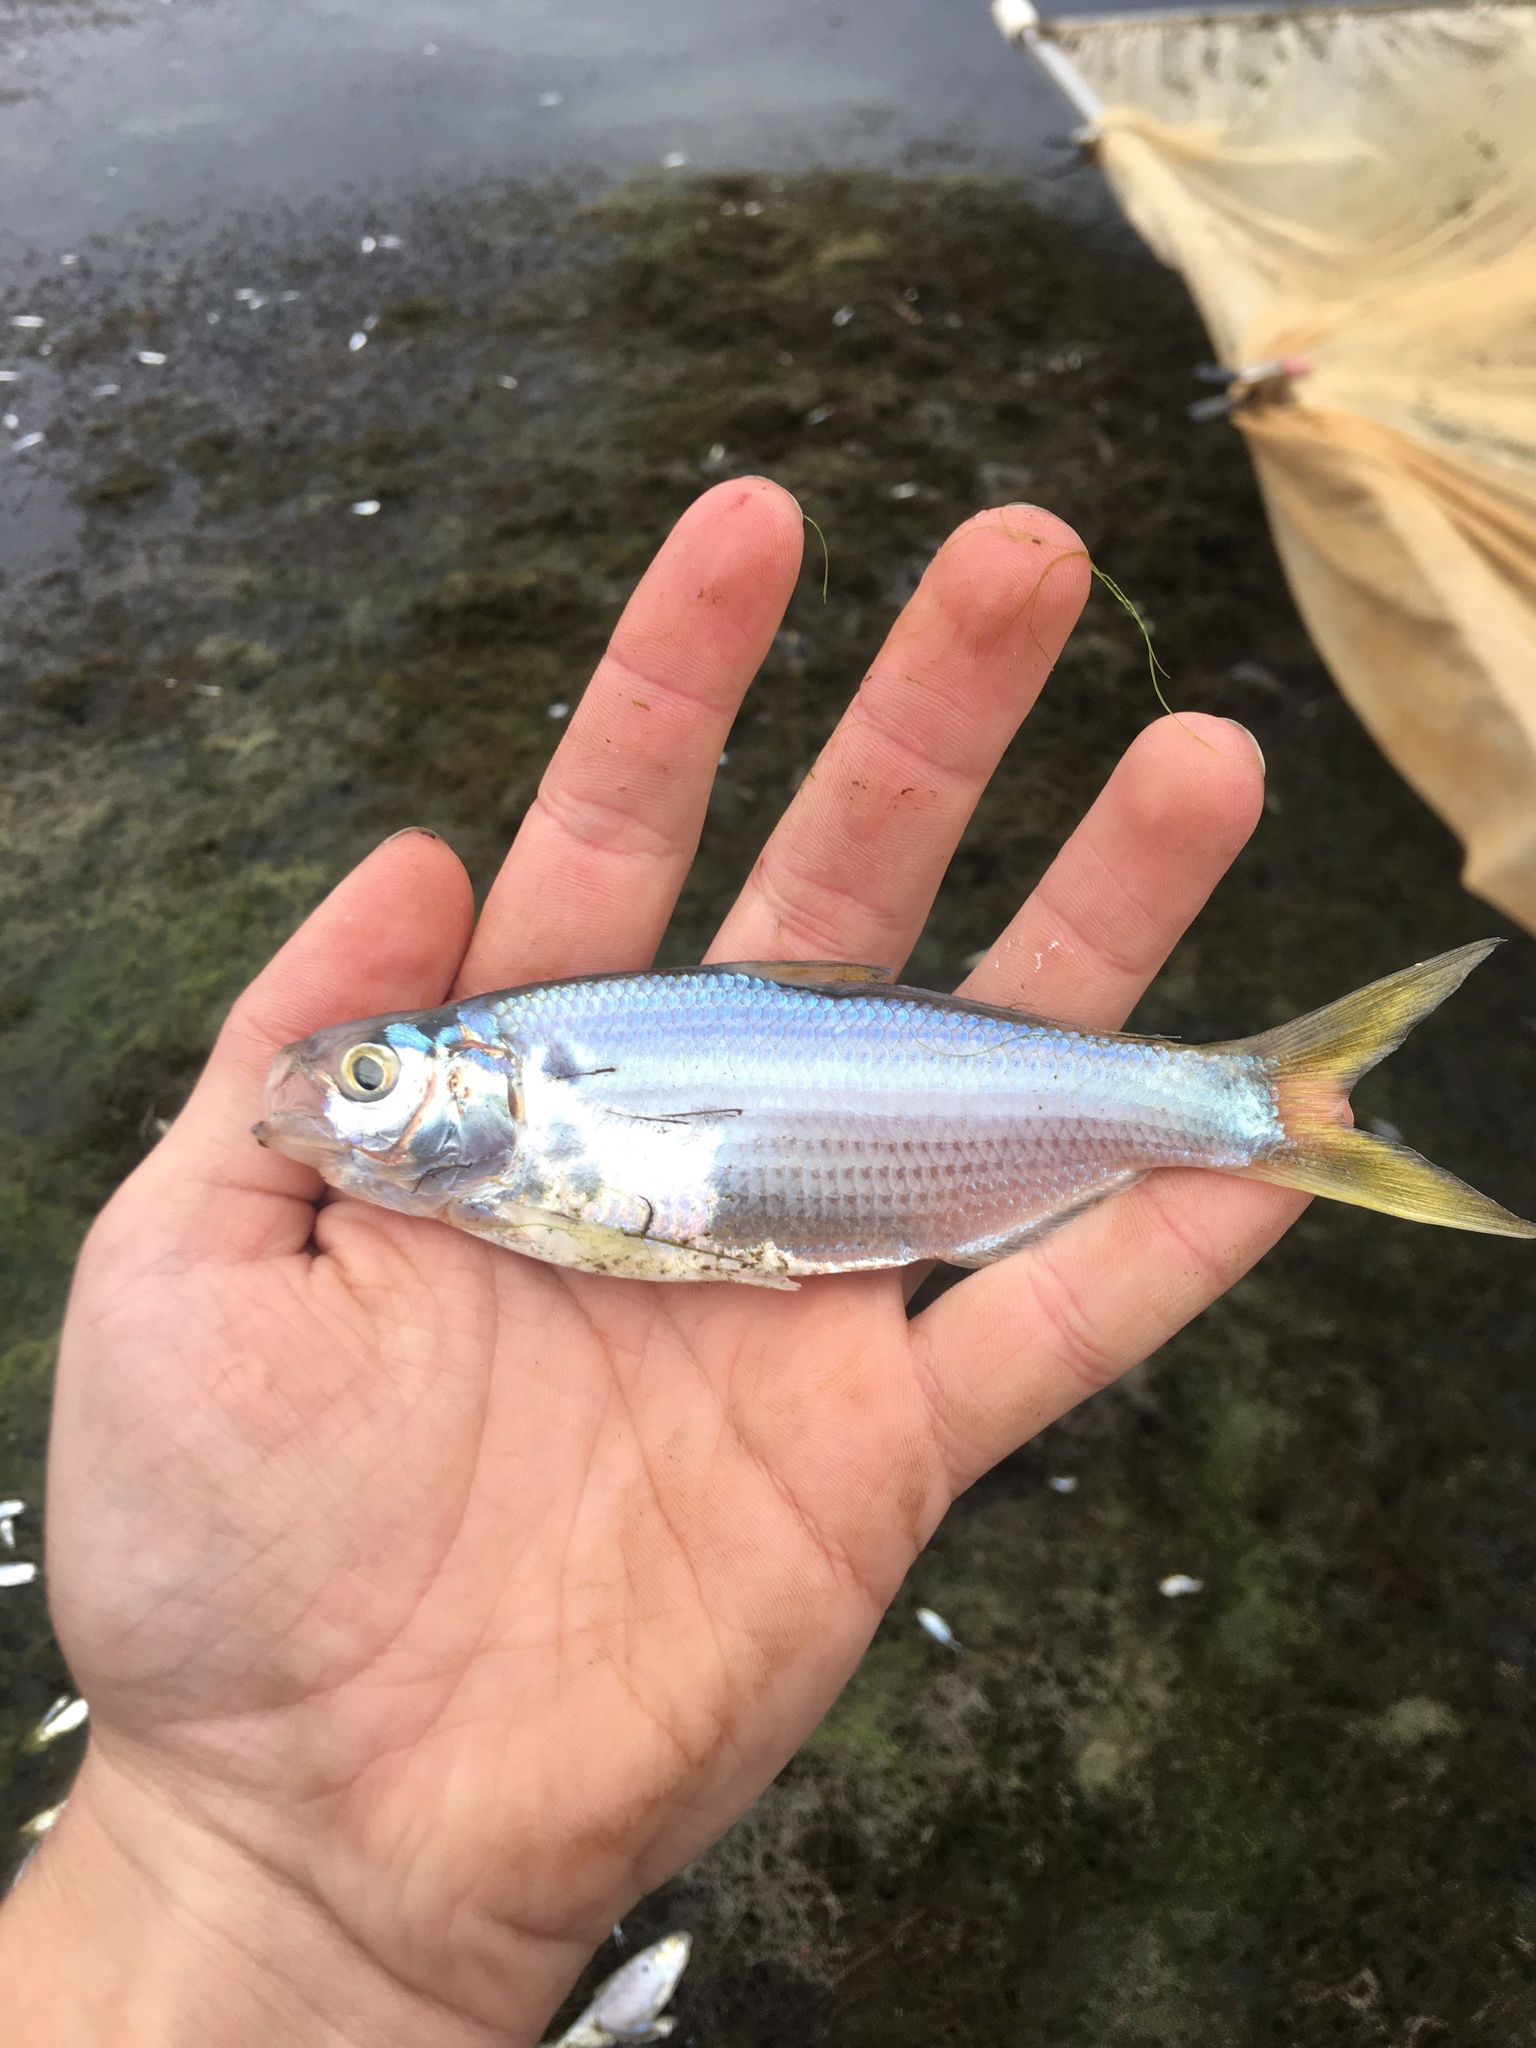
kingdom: Animalia
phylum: Chordata
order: Clupeiformes
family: Clupeidae
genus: Dorosoma
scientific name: Dorosoma petenense
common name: Threadfin shad
